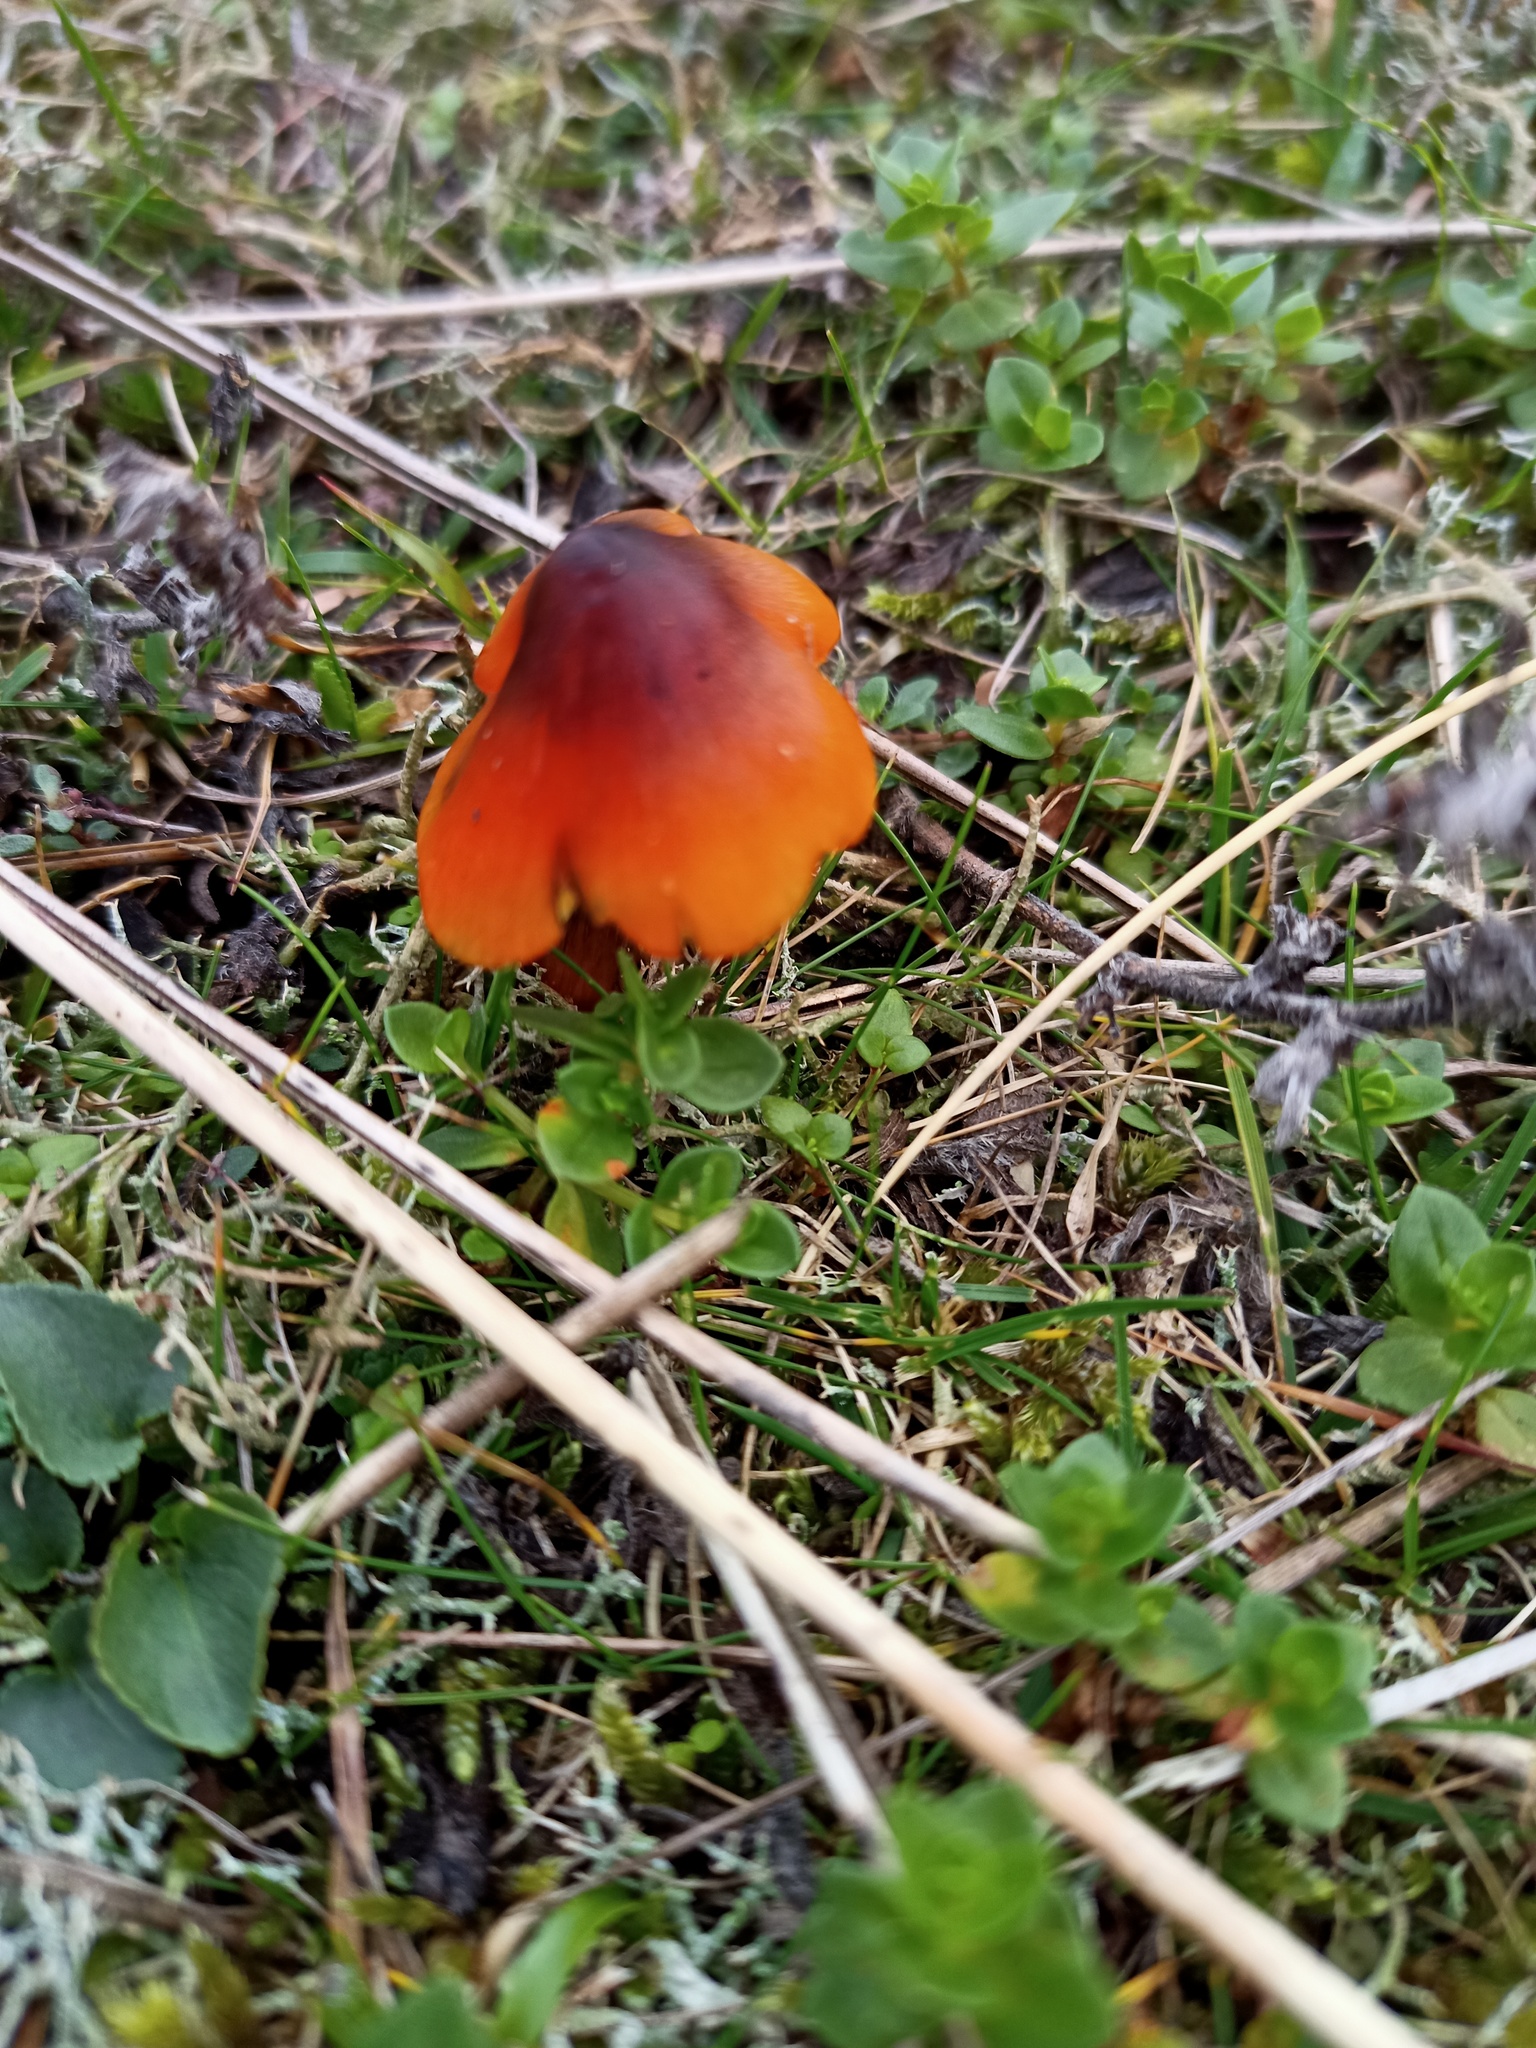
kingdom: Fungi
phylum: Basidiomycota
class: Agaricomycetes
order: Agaricales
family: Hygrophoraceae
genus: Hygrocybe
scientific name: Hygrocybe conica
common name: Blackening wax-cap
